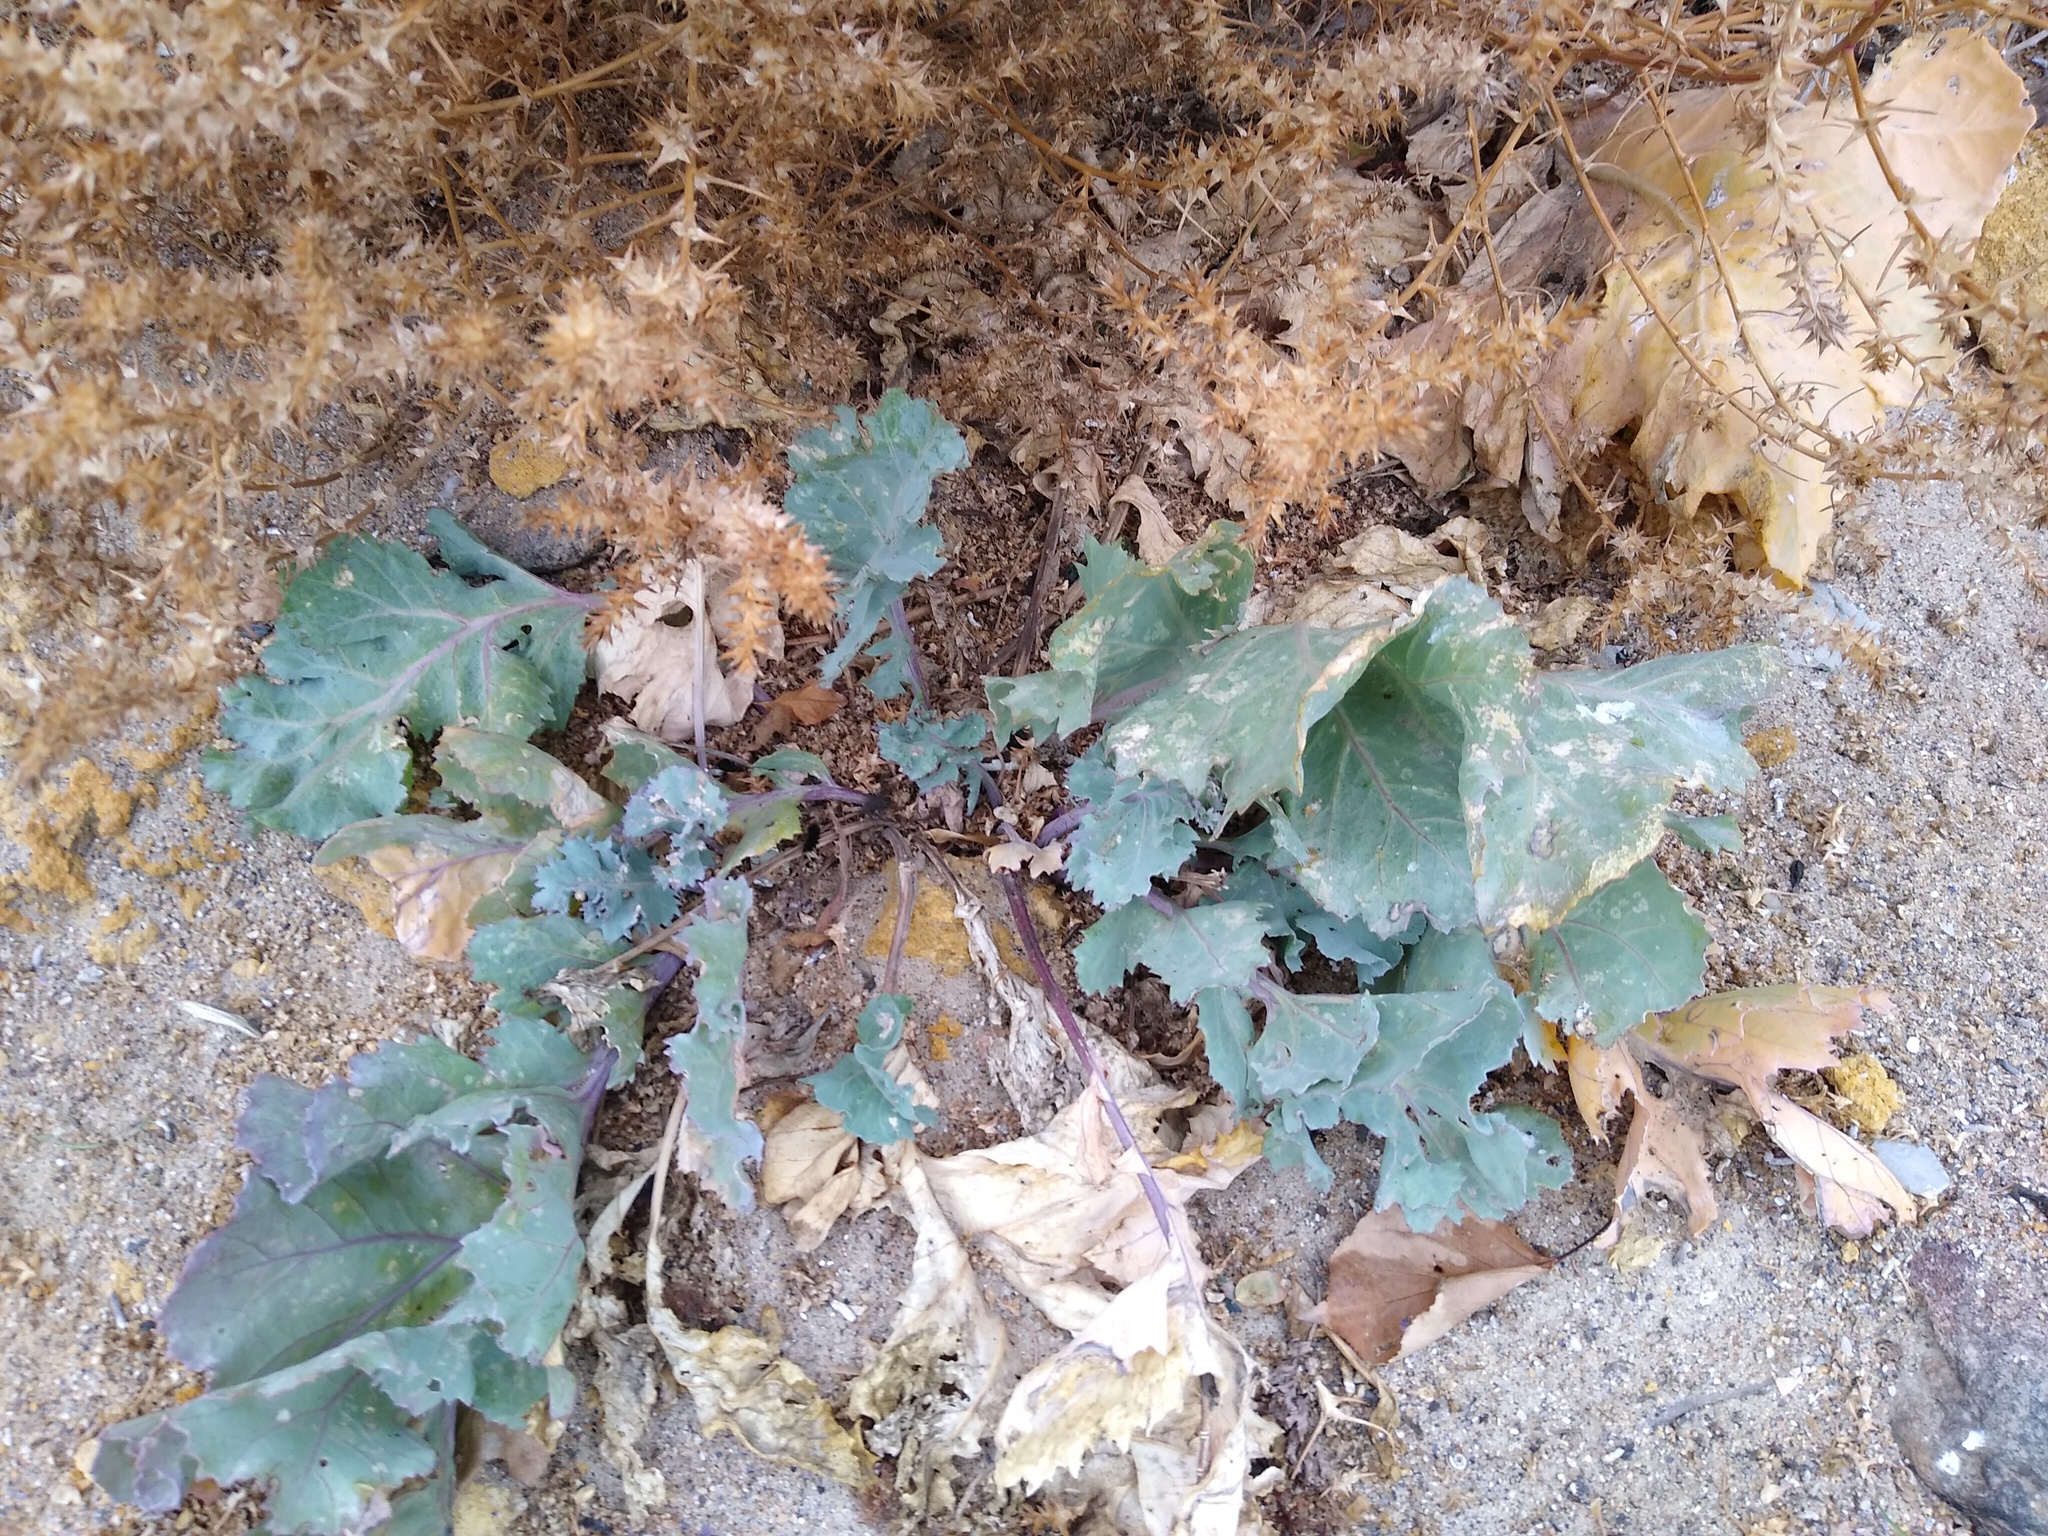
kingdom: Plantae
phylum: Tracheophyta
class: Magnoliopsida
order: Brassicales
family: Brassicaceae
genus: Crambe
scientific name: Crambe maritima
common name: Sea-kale
